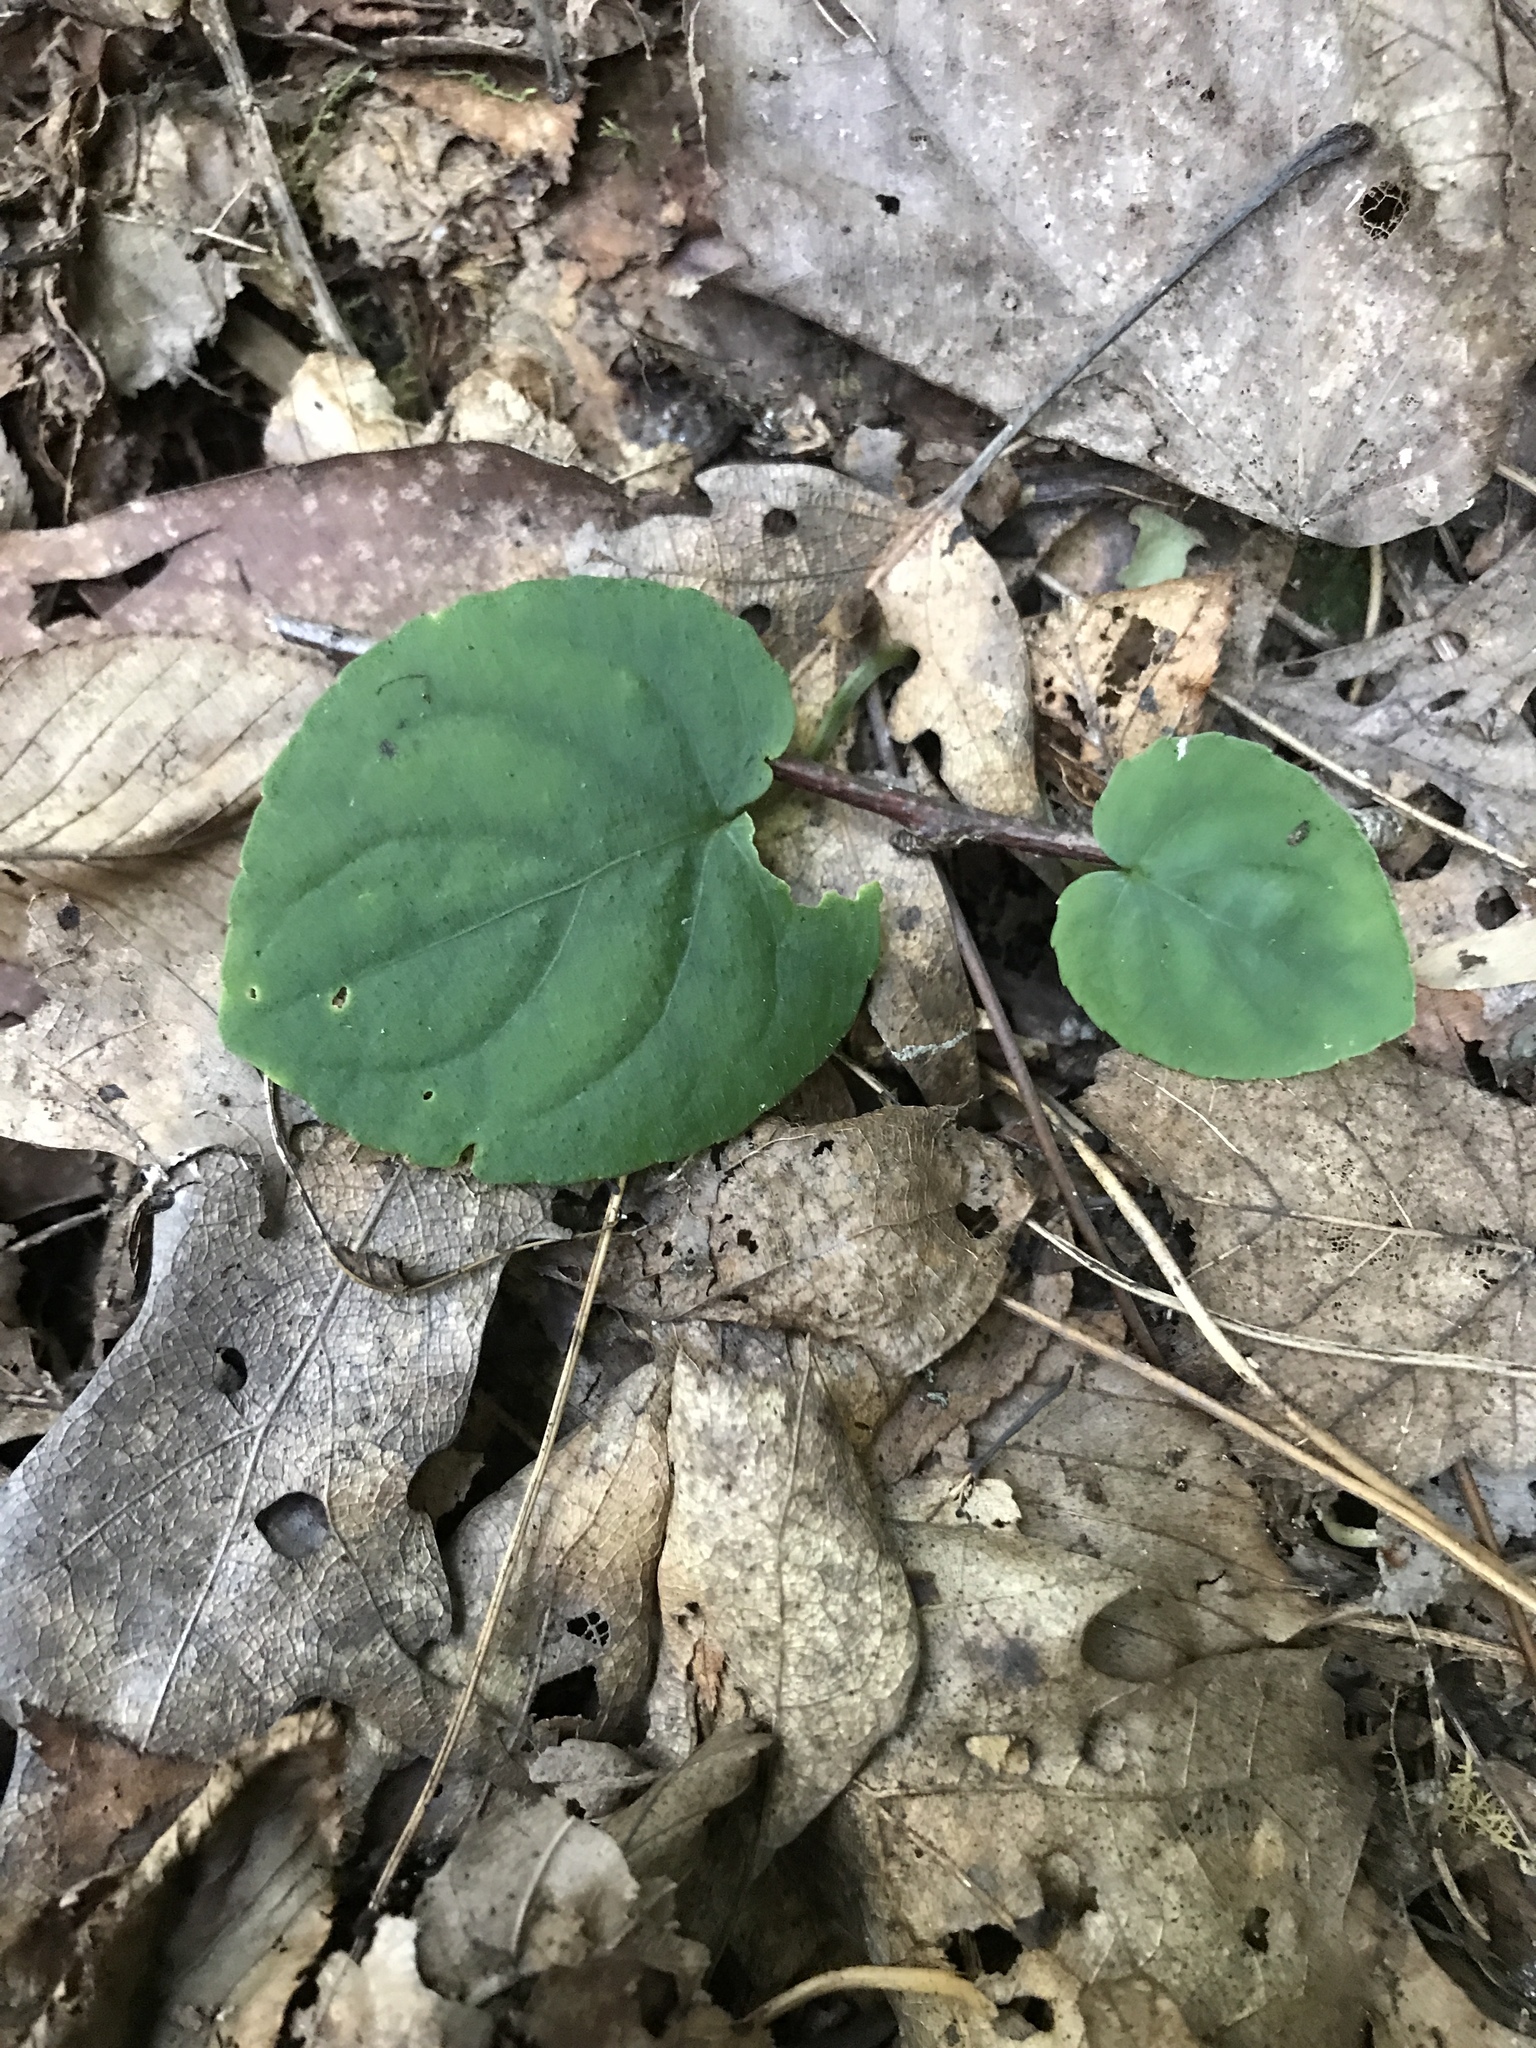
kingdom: Plantae
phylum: Tracheophyta
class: Magnoliopsida
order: Malpighiales
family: Violaceae
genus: Viola
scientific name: Viola rotundifolia
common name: Early yellow violet
